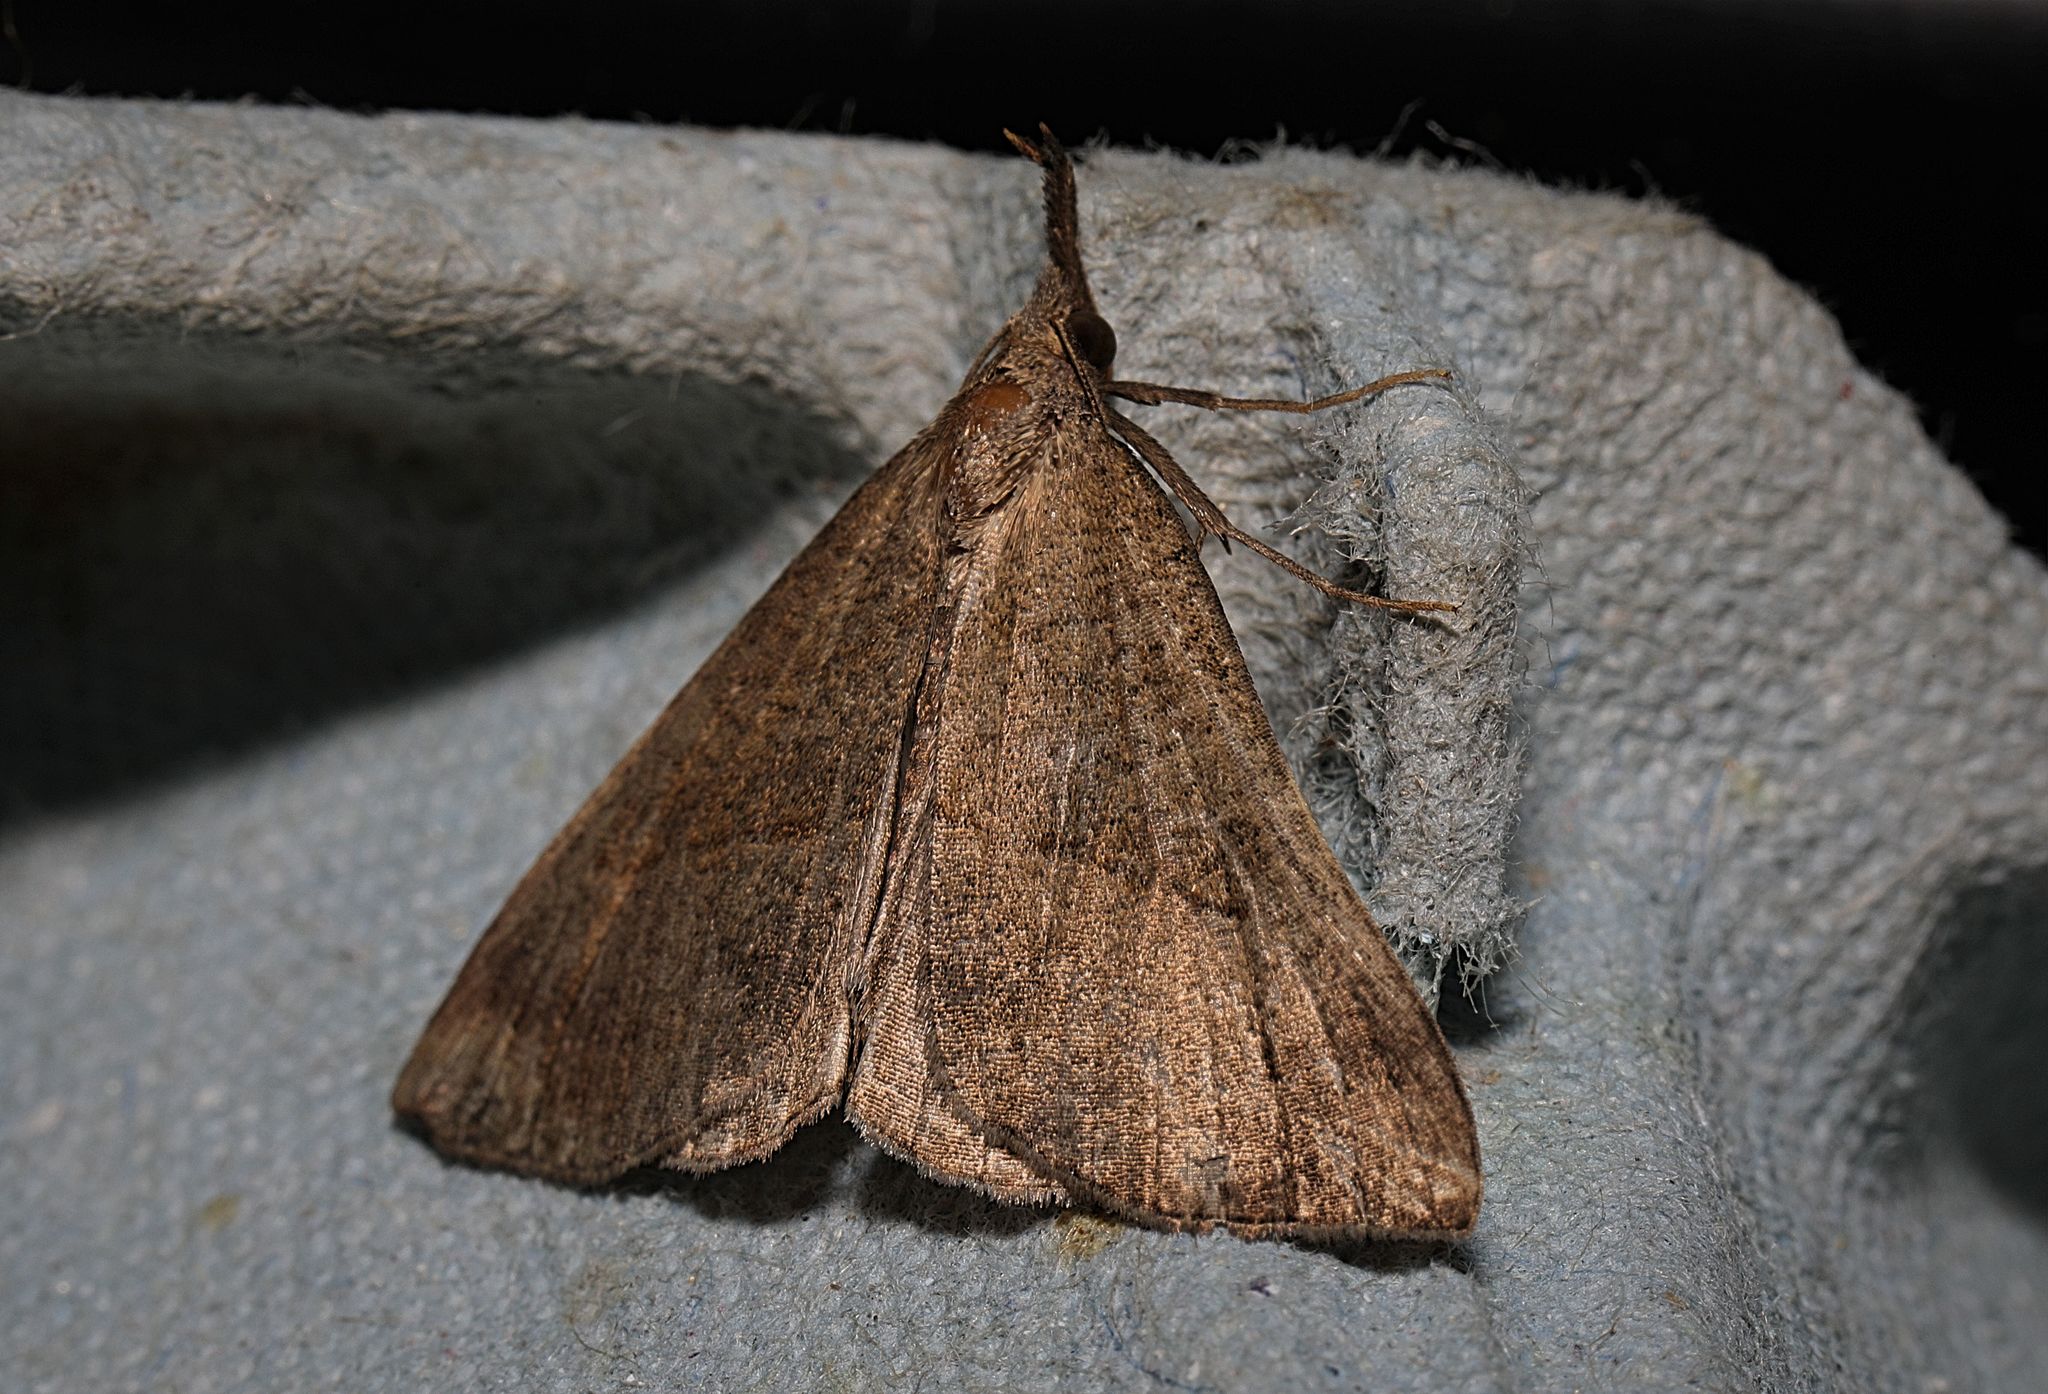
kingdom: Animalia
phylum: Arthropoda
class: Insecta
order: Lepidoptera
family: Erebidae
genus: Hypena
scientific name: Hypena proboscidalis
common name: Snout
